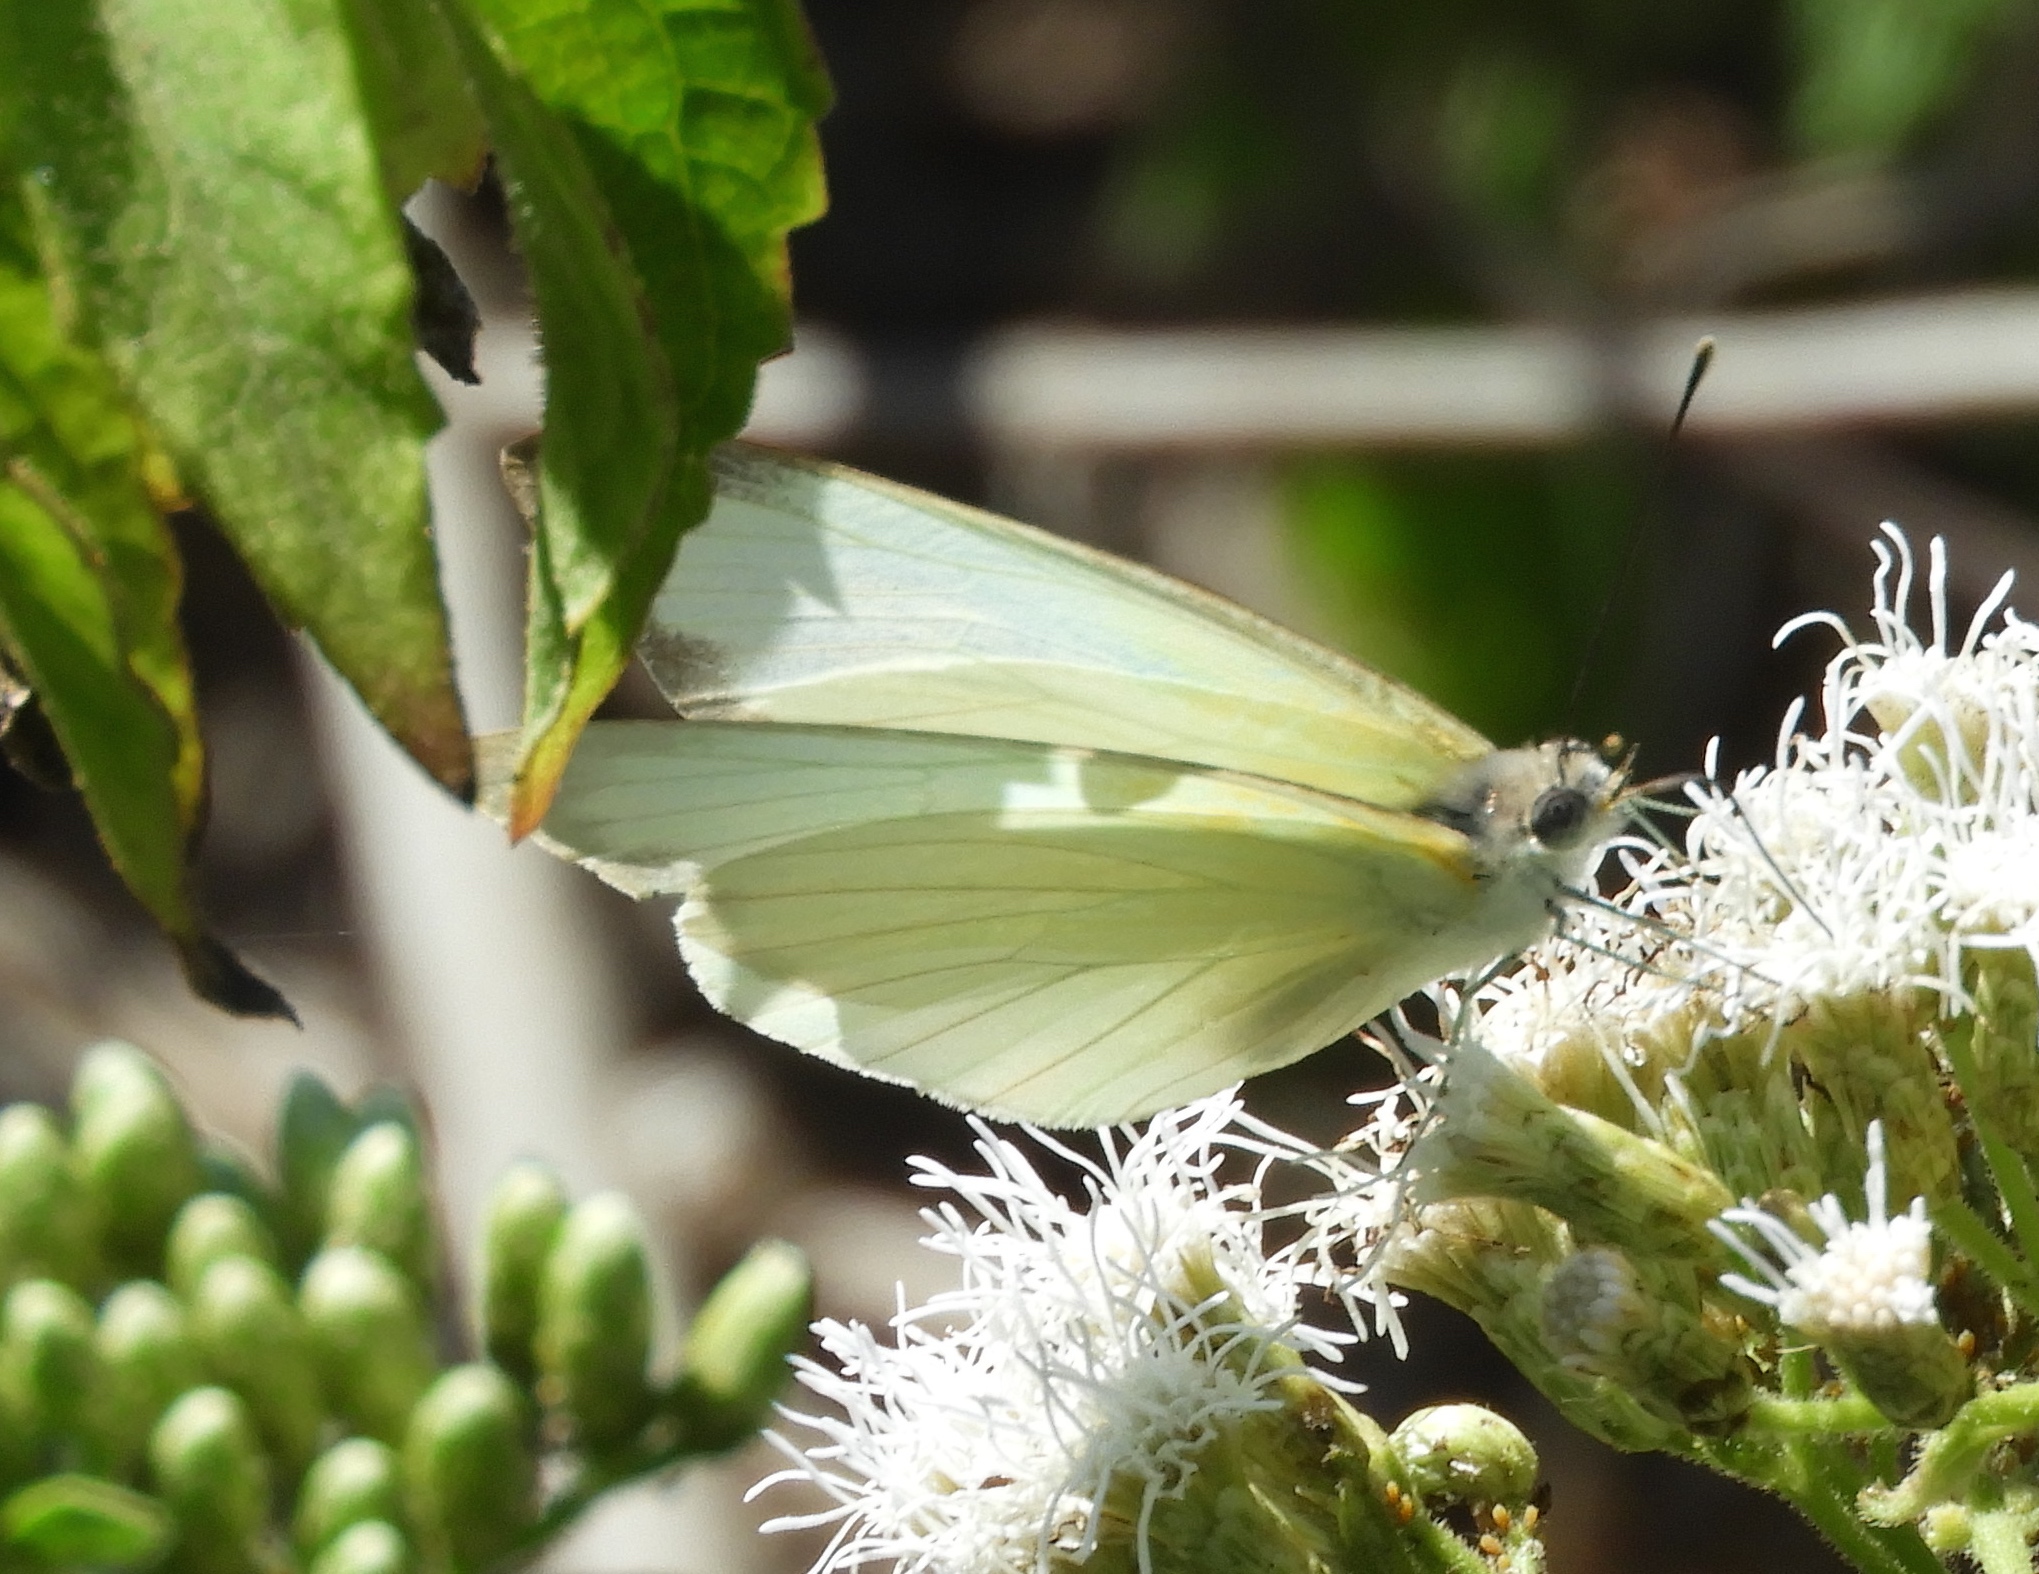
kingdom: Animalia
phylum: Arthropoda
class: Insecta
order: Lepidoptera
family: Pieridae
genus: Ascia
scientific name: Ascia monuste
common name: Great southern white
